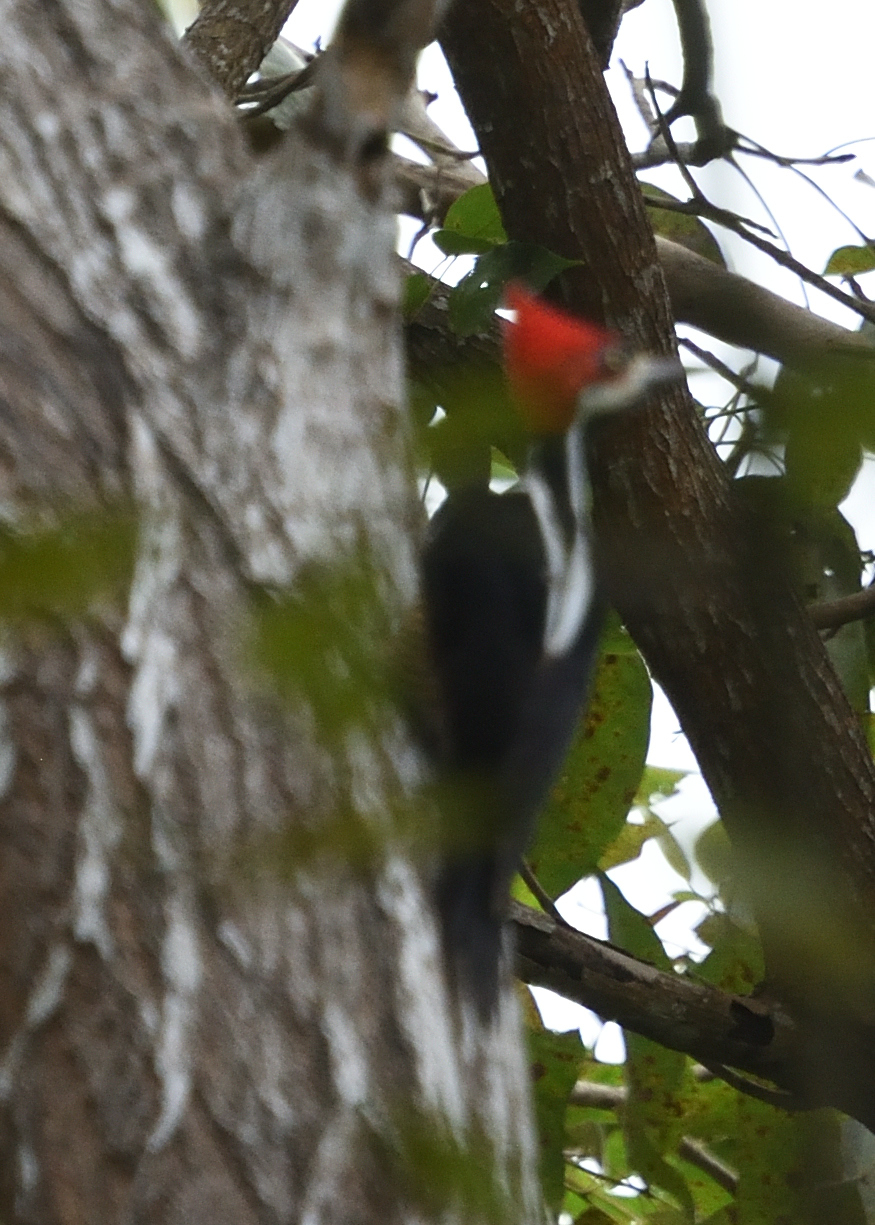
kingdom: Animalia
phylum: Chordata
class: Aves
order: Piciformes
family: Picidae
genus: Campephilus
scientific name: Campephilus melanoleucos
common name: Crimson-crested woodpecker
